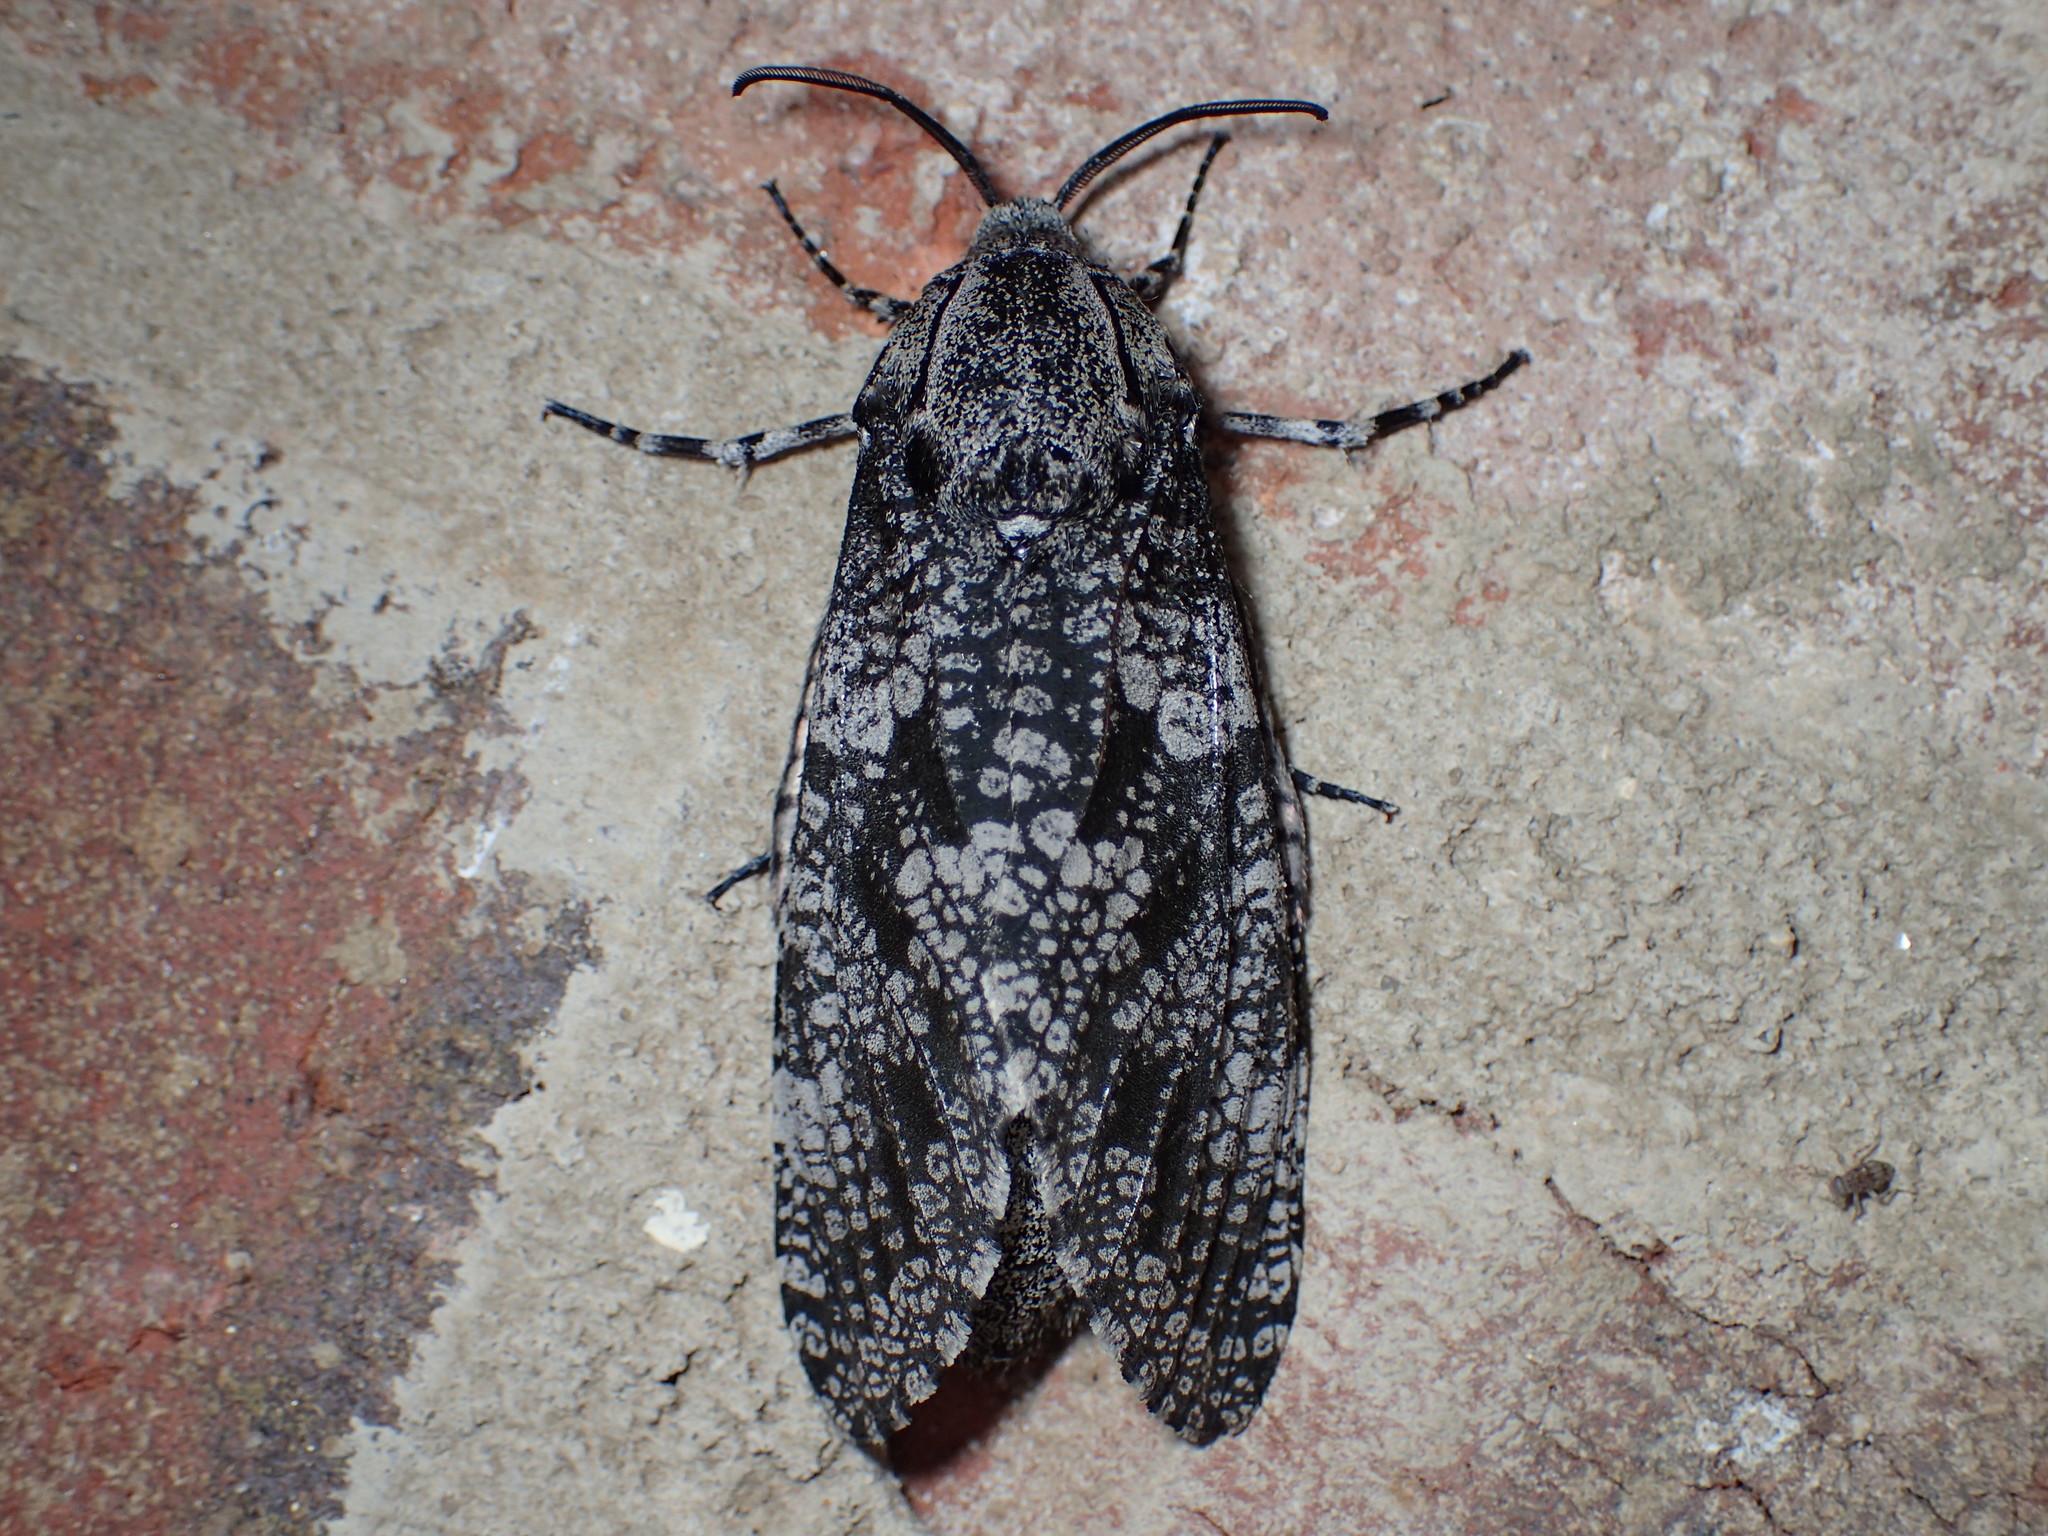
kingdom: Animalia
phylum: Arthropoda
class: Insecta
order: Lepidoptera
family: Cossidae
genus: Prionoxystus
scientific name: Prionoxystus robiniae
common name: Carpenterworm
